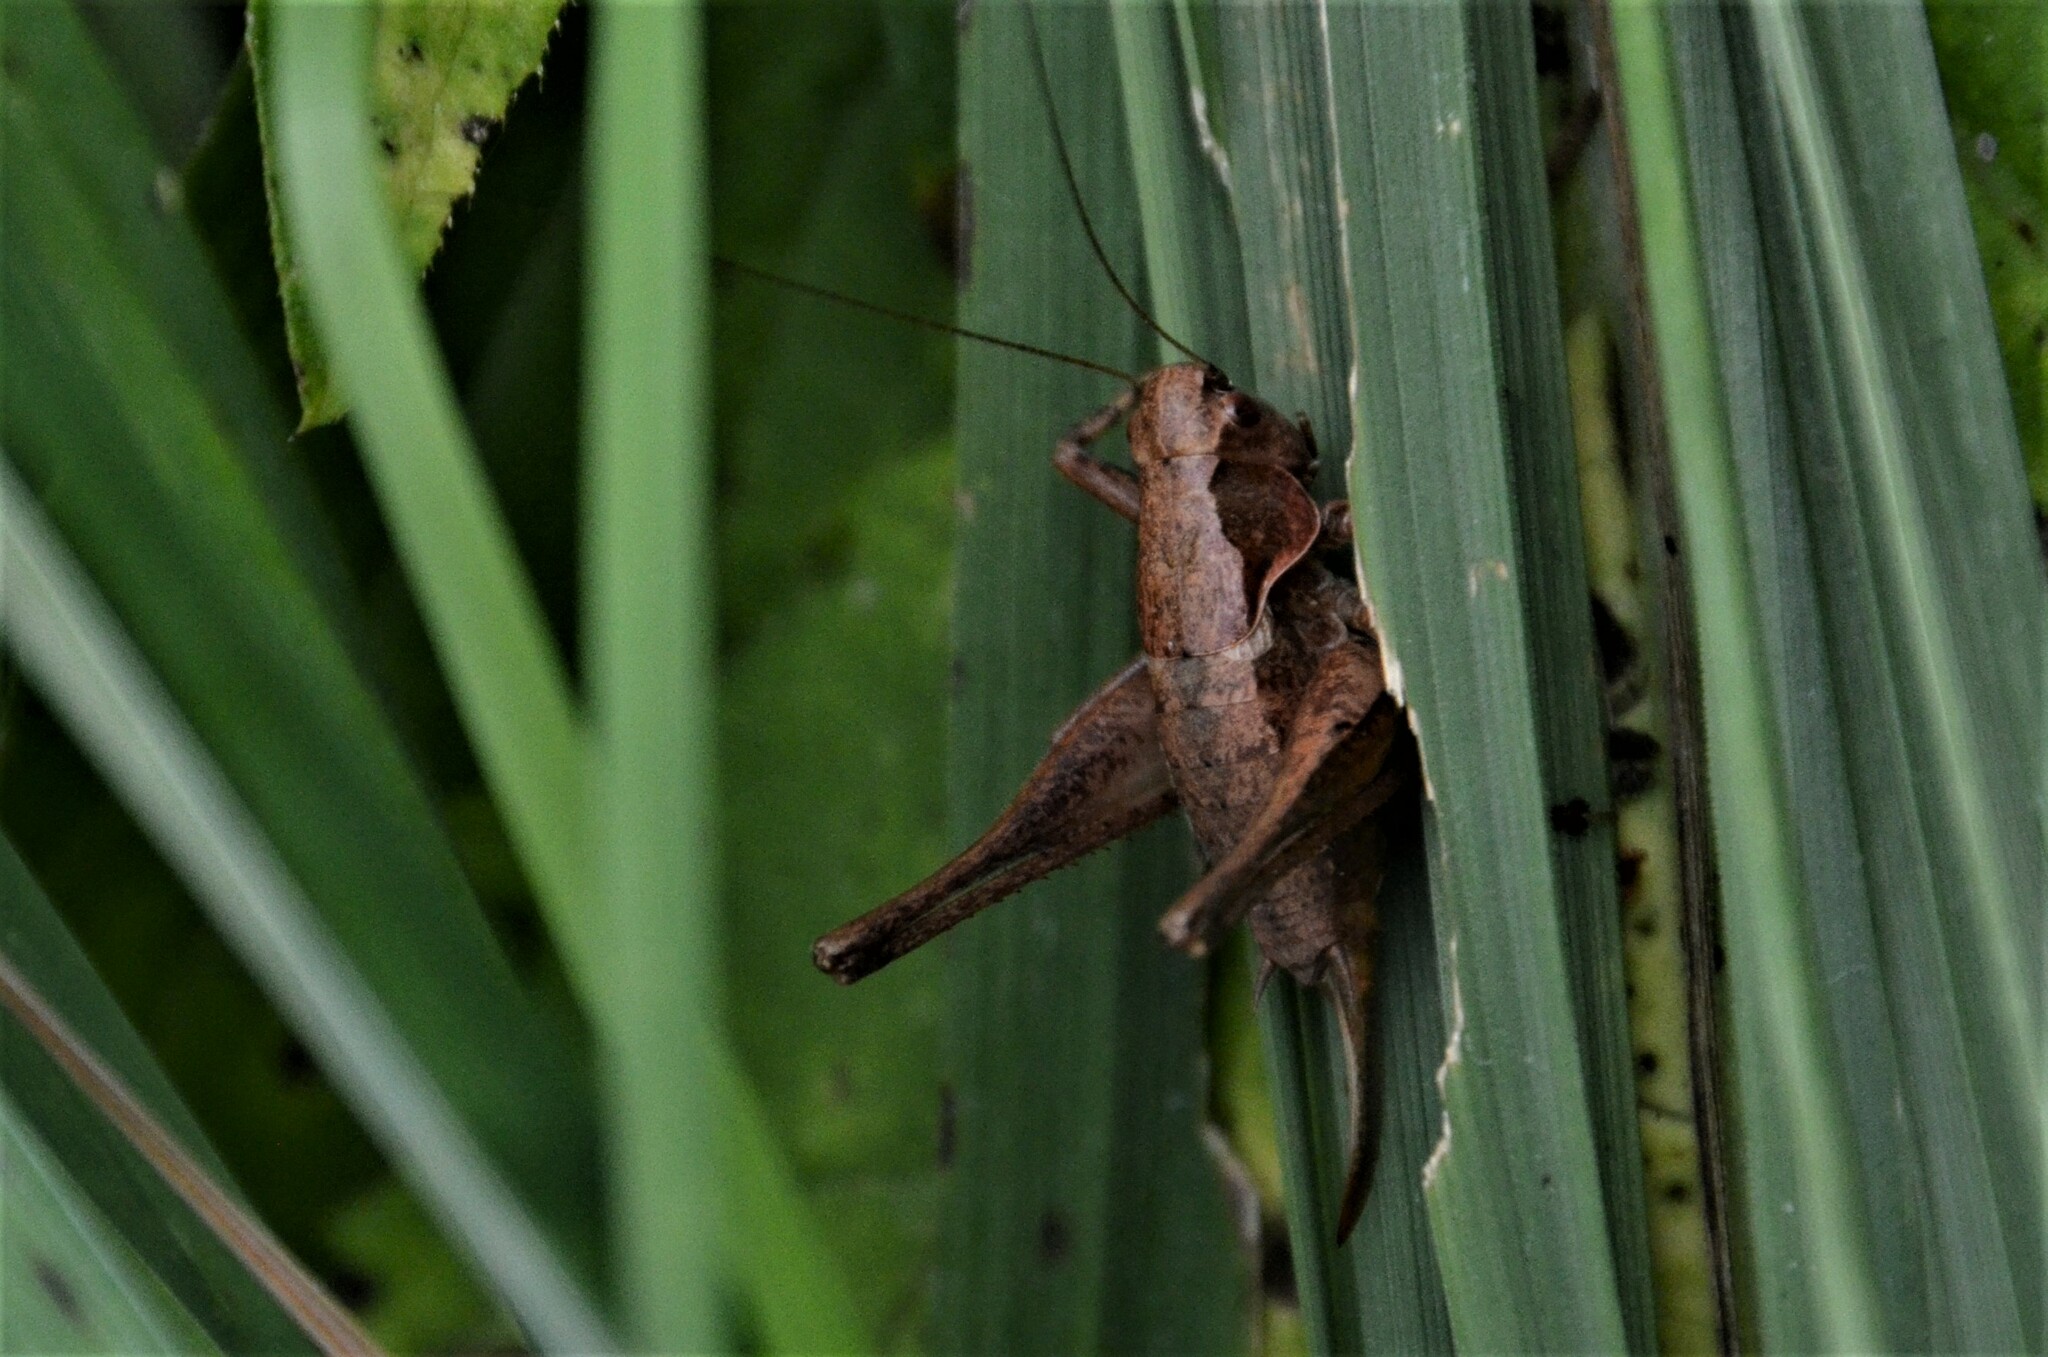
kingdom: Animalia
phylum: Arthropoda
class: Insecta
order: Orthoptera
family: Tettigoniidae
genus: Pholidoptera
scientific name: Pholidoptera griseoaptera
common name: Dark bush-cricket
